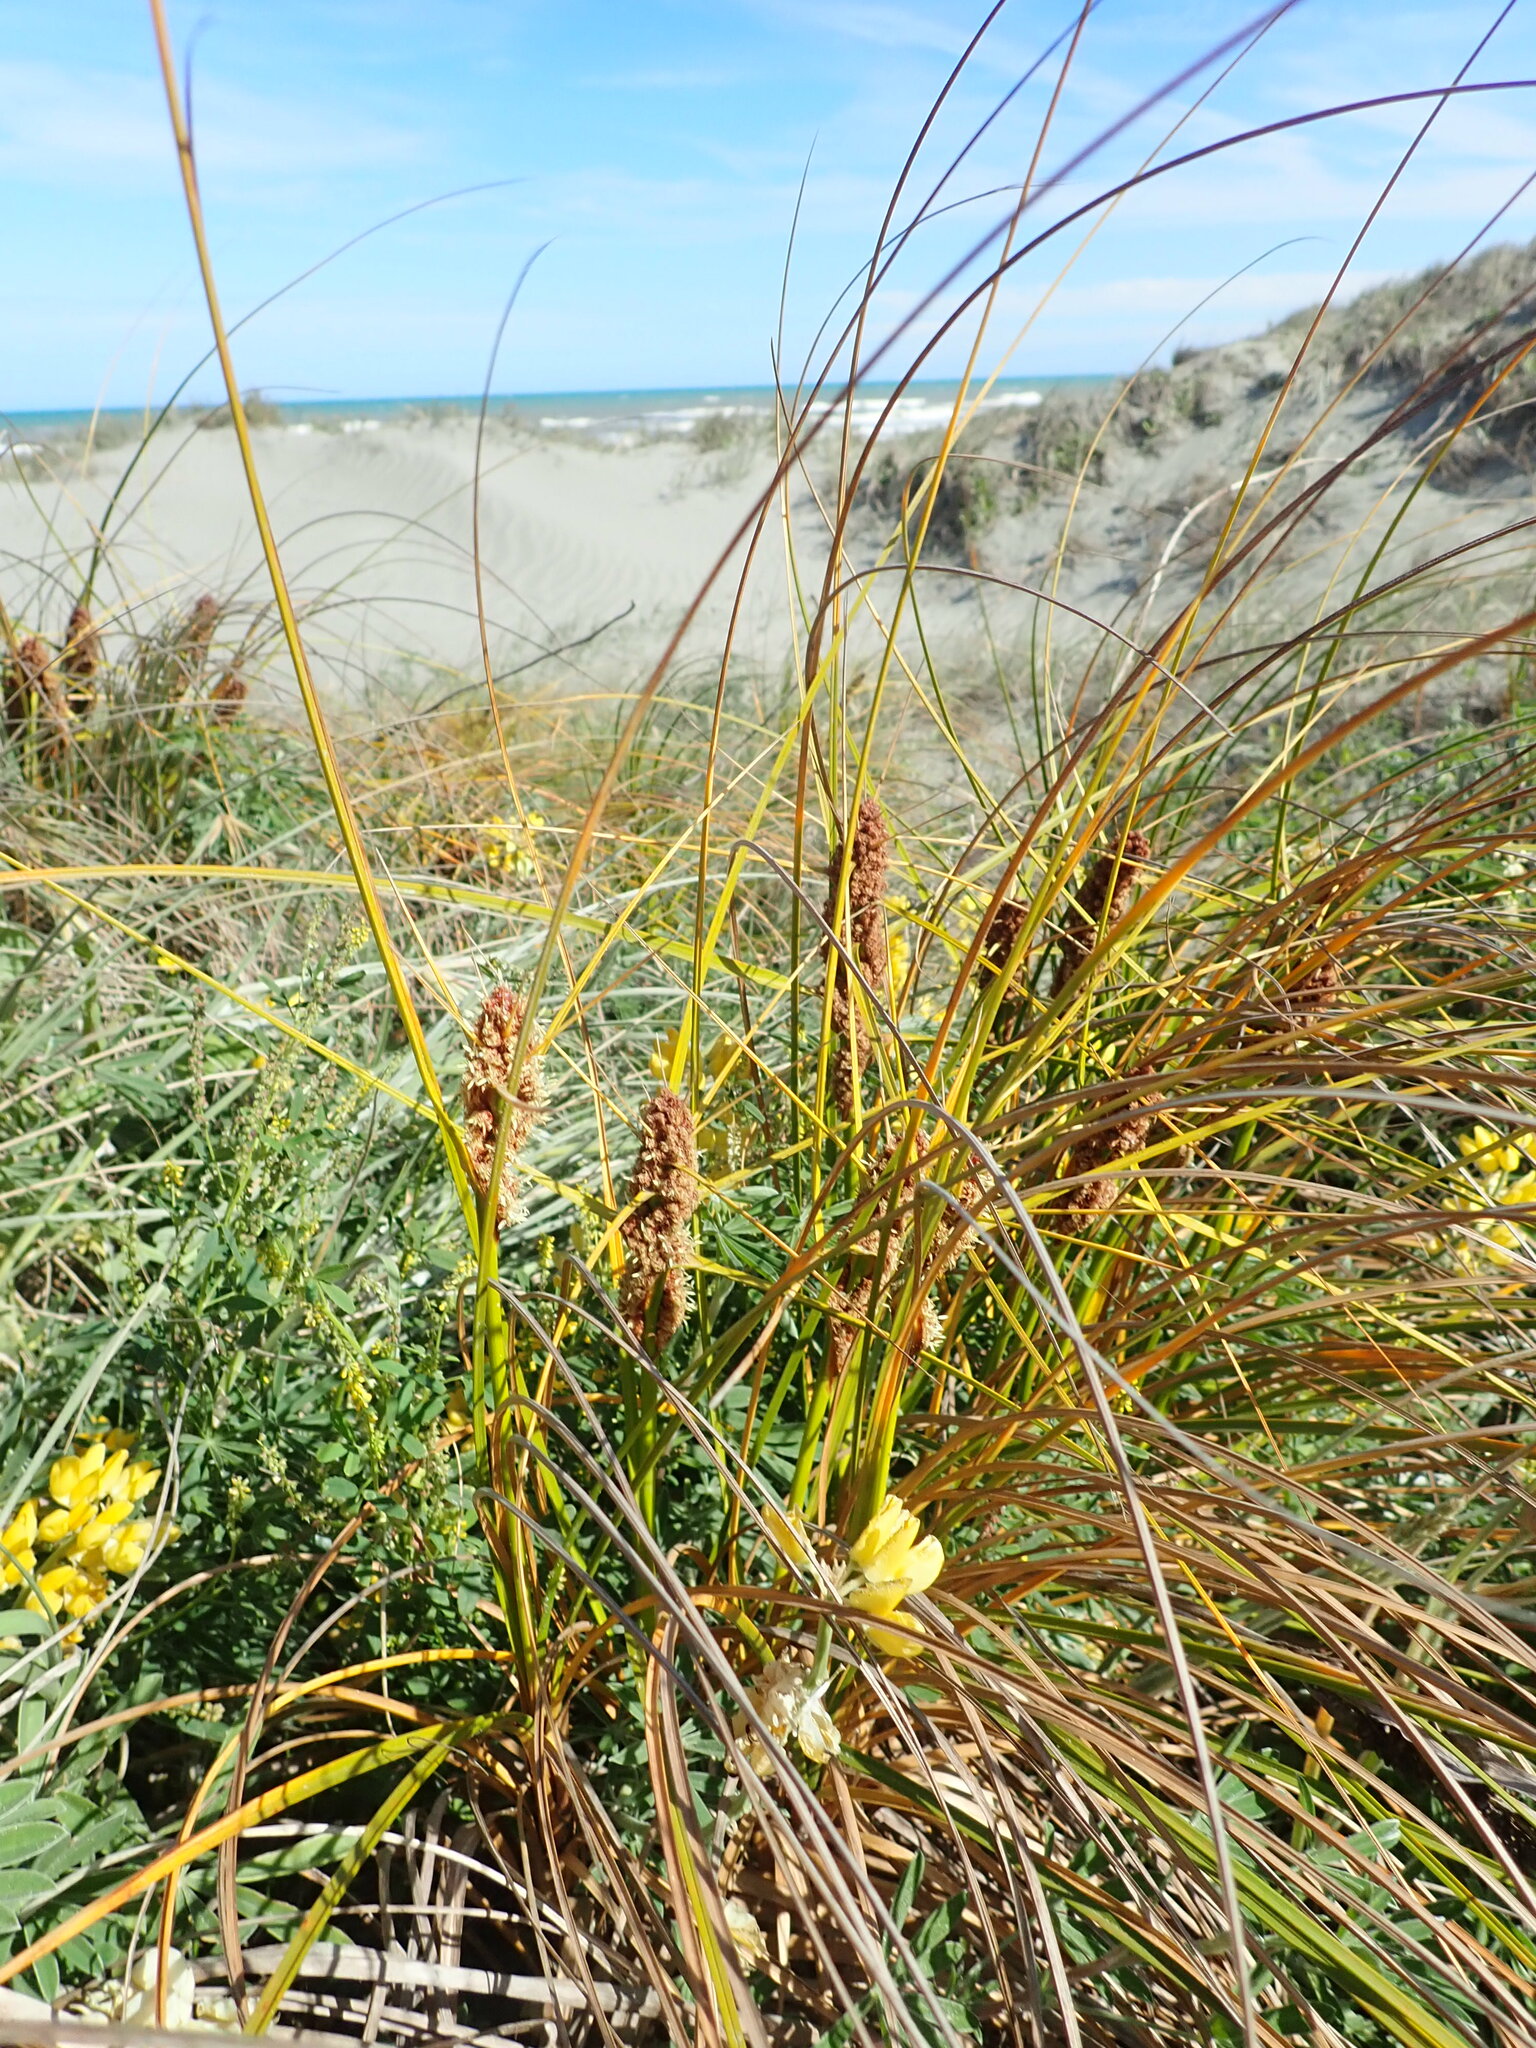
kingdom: Plantae
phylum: Tracheophyta
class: Liliopsida
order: Poales
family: Cyperaceae
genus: Ficinia
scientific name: Ficinia spiralis
